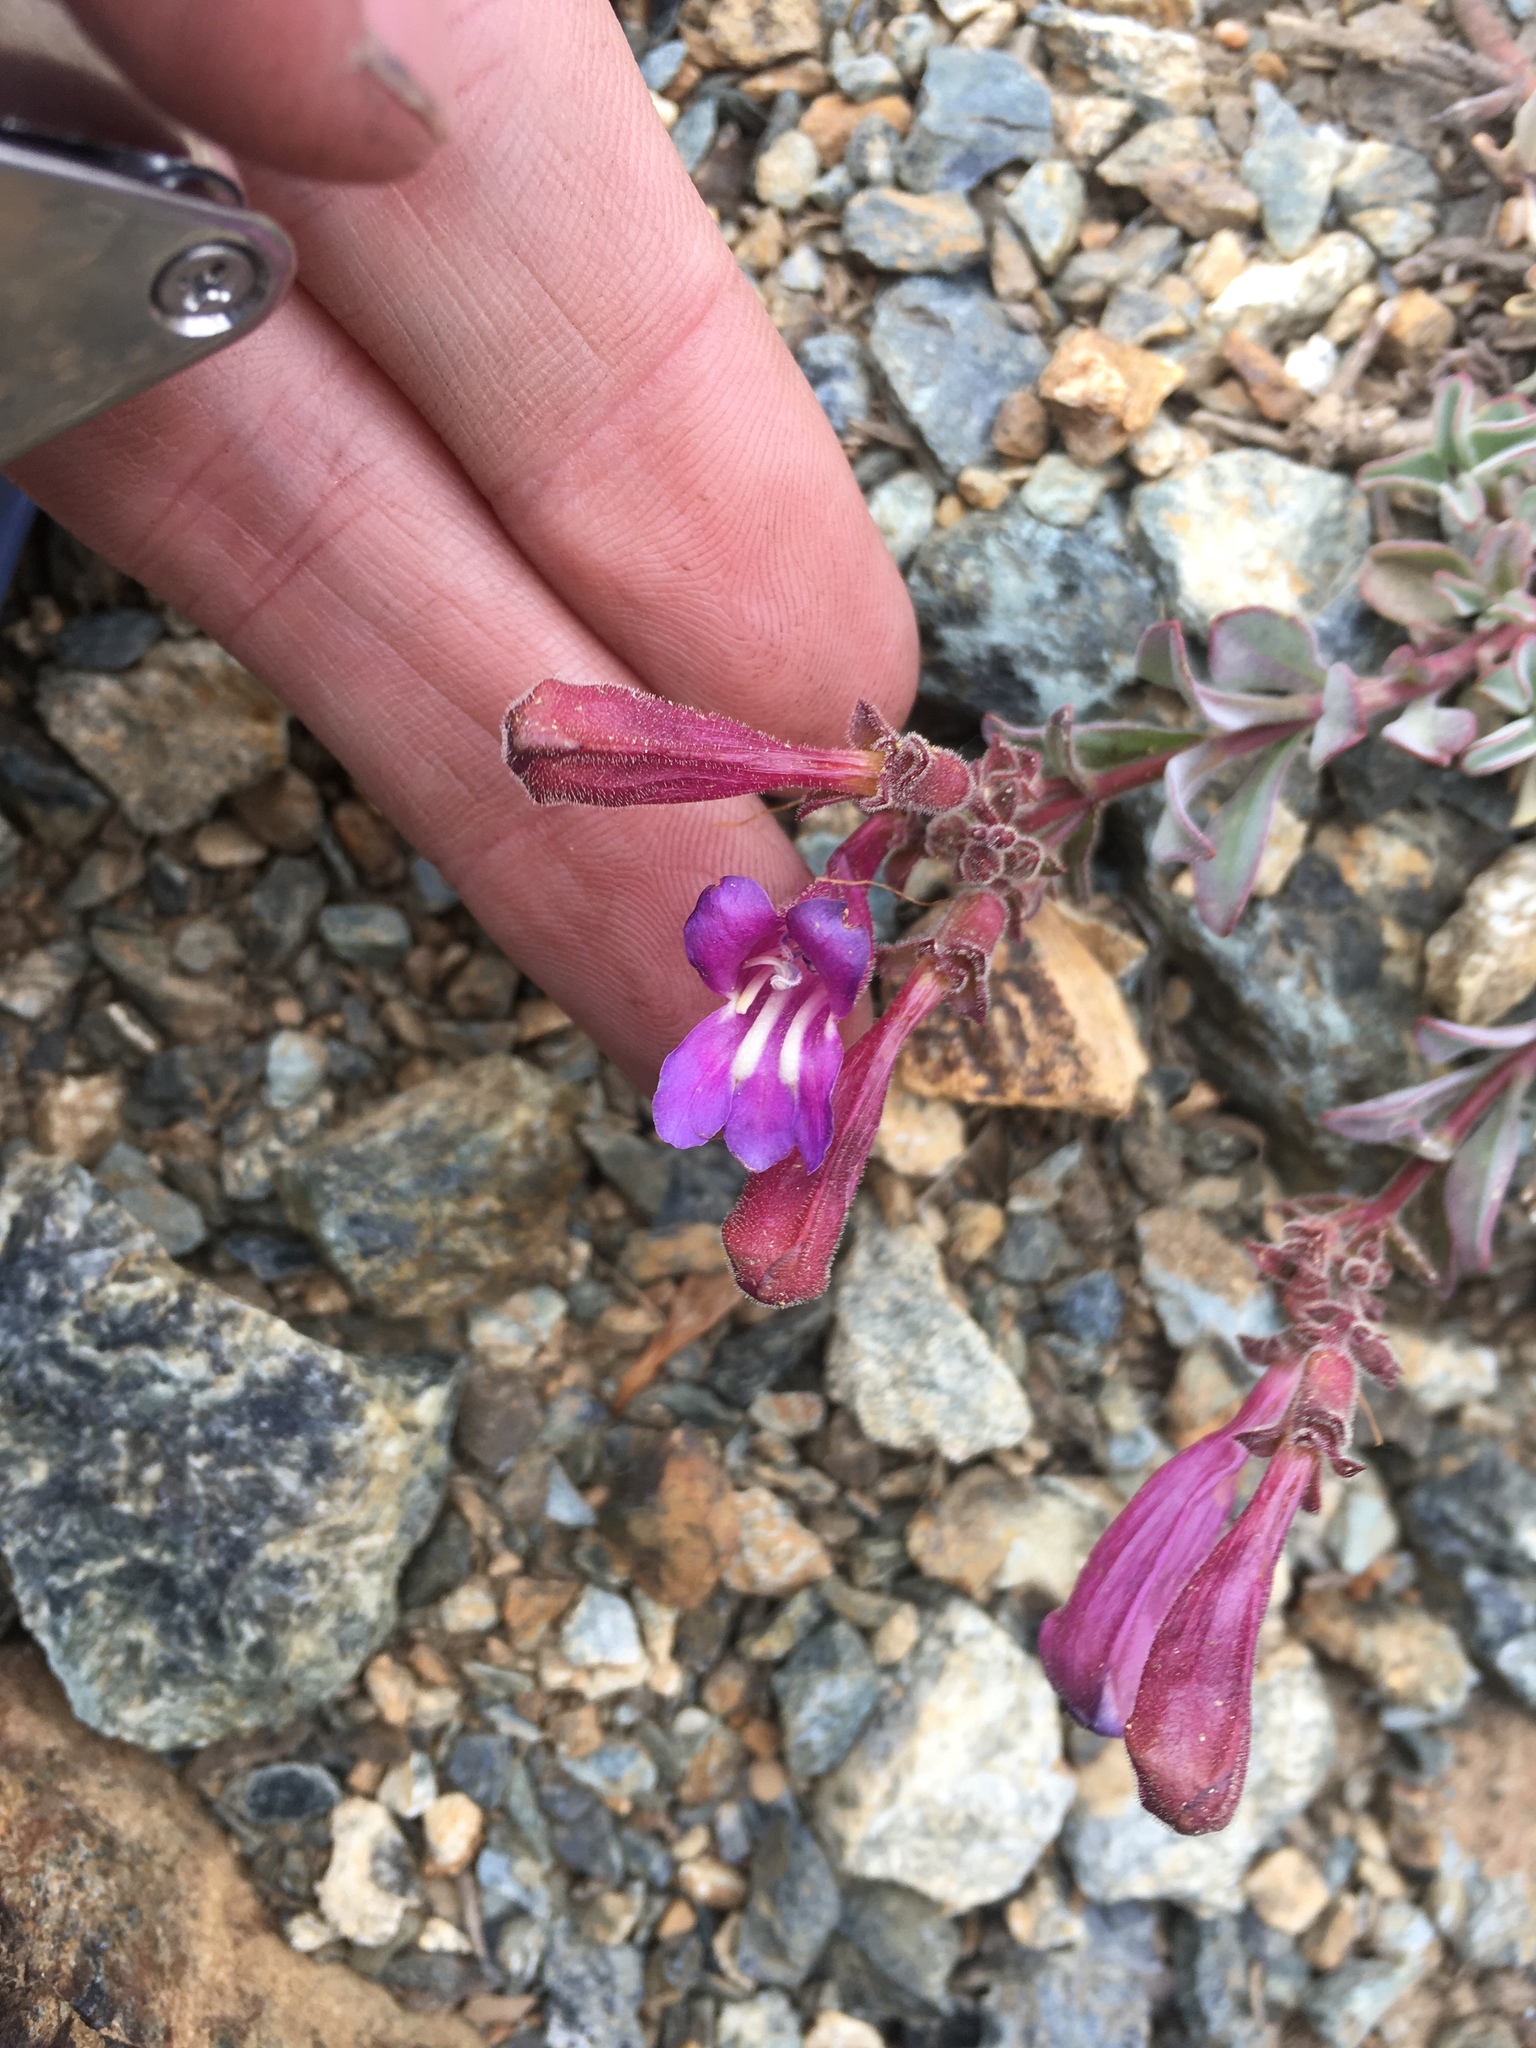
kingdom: Plantae
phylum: Tracheophyta
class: Magnoliopsida
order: Lamiales
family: Plantaginaceae
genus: Penstemon
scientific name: Penstemon purpusii
